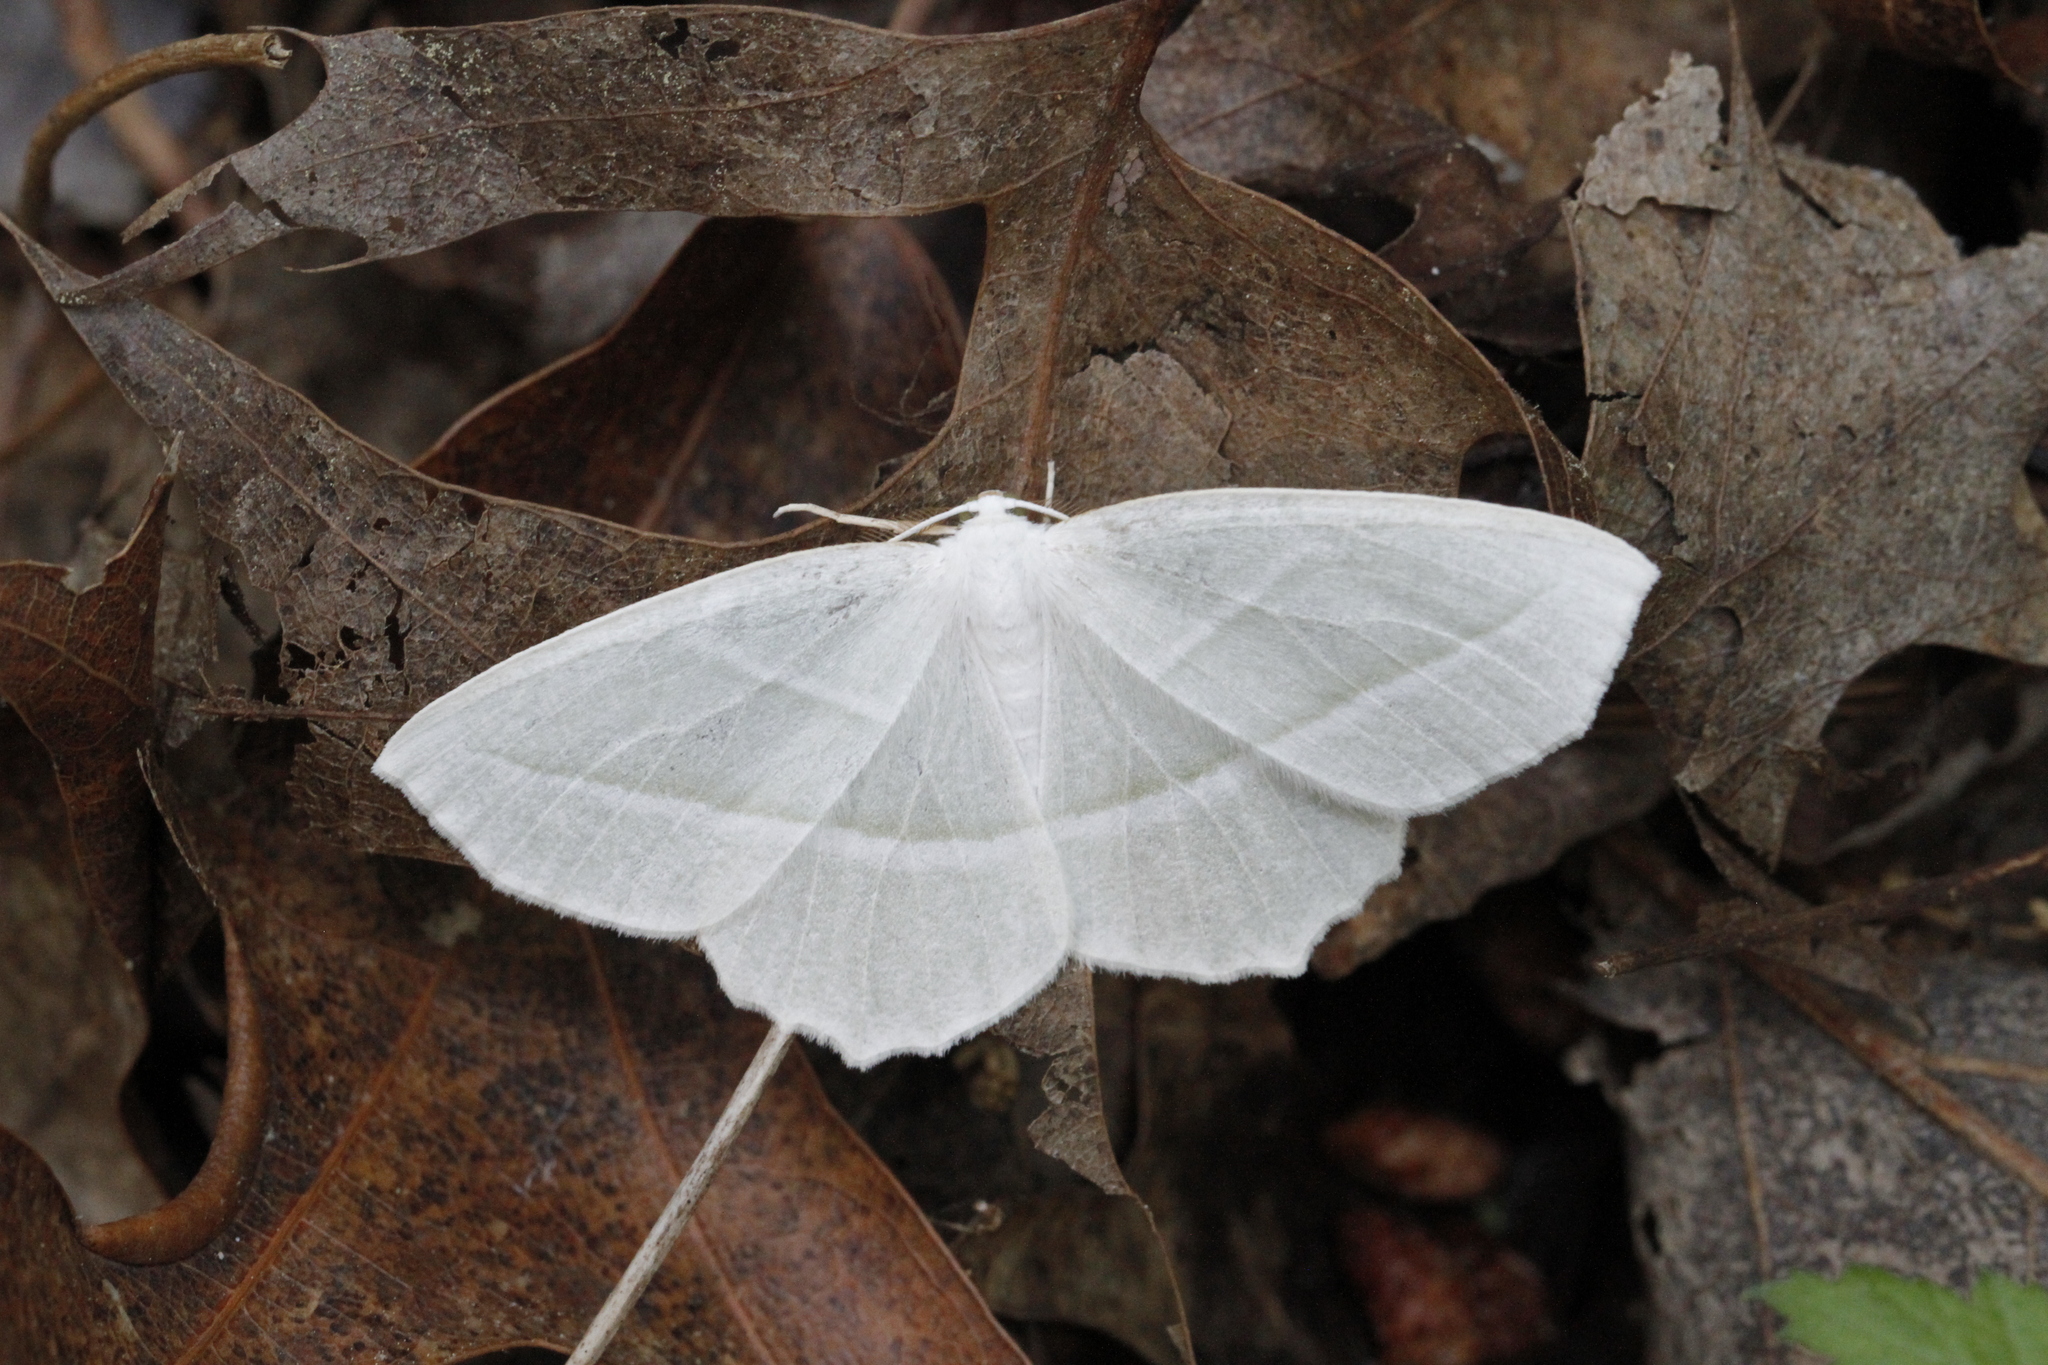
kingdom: Animalia
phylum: Arthropoda
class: Insecta
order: Lepidoptera
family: Geometridae
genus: Campaea
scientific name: Campaea perlata
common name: Fringed looper
